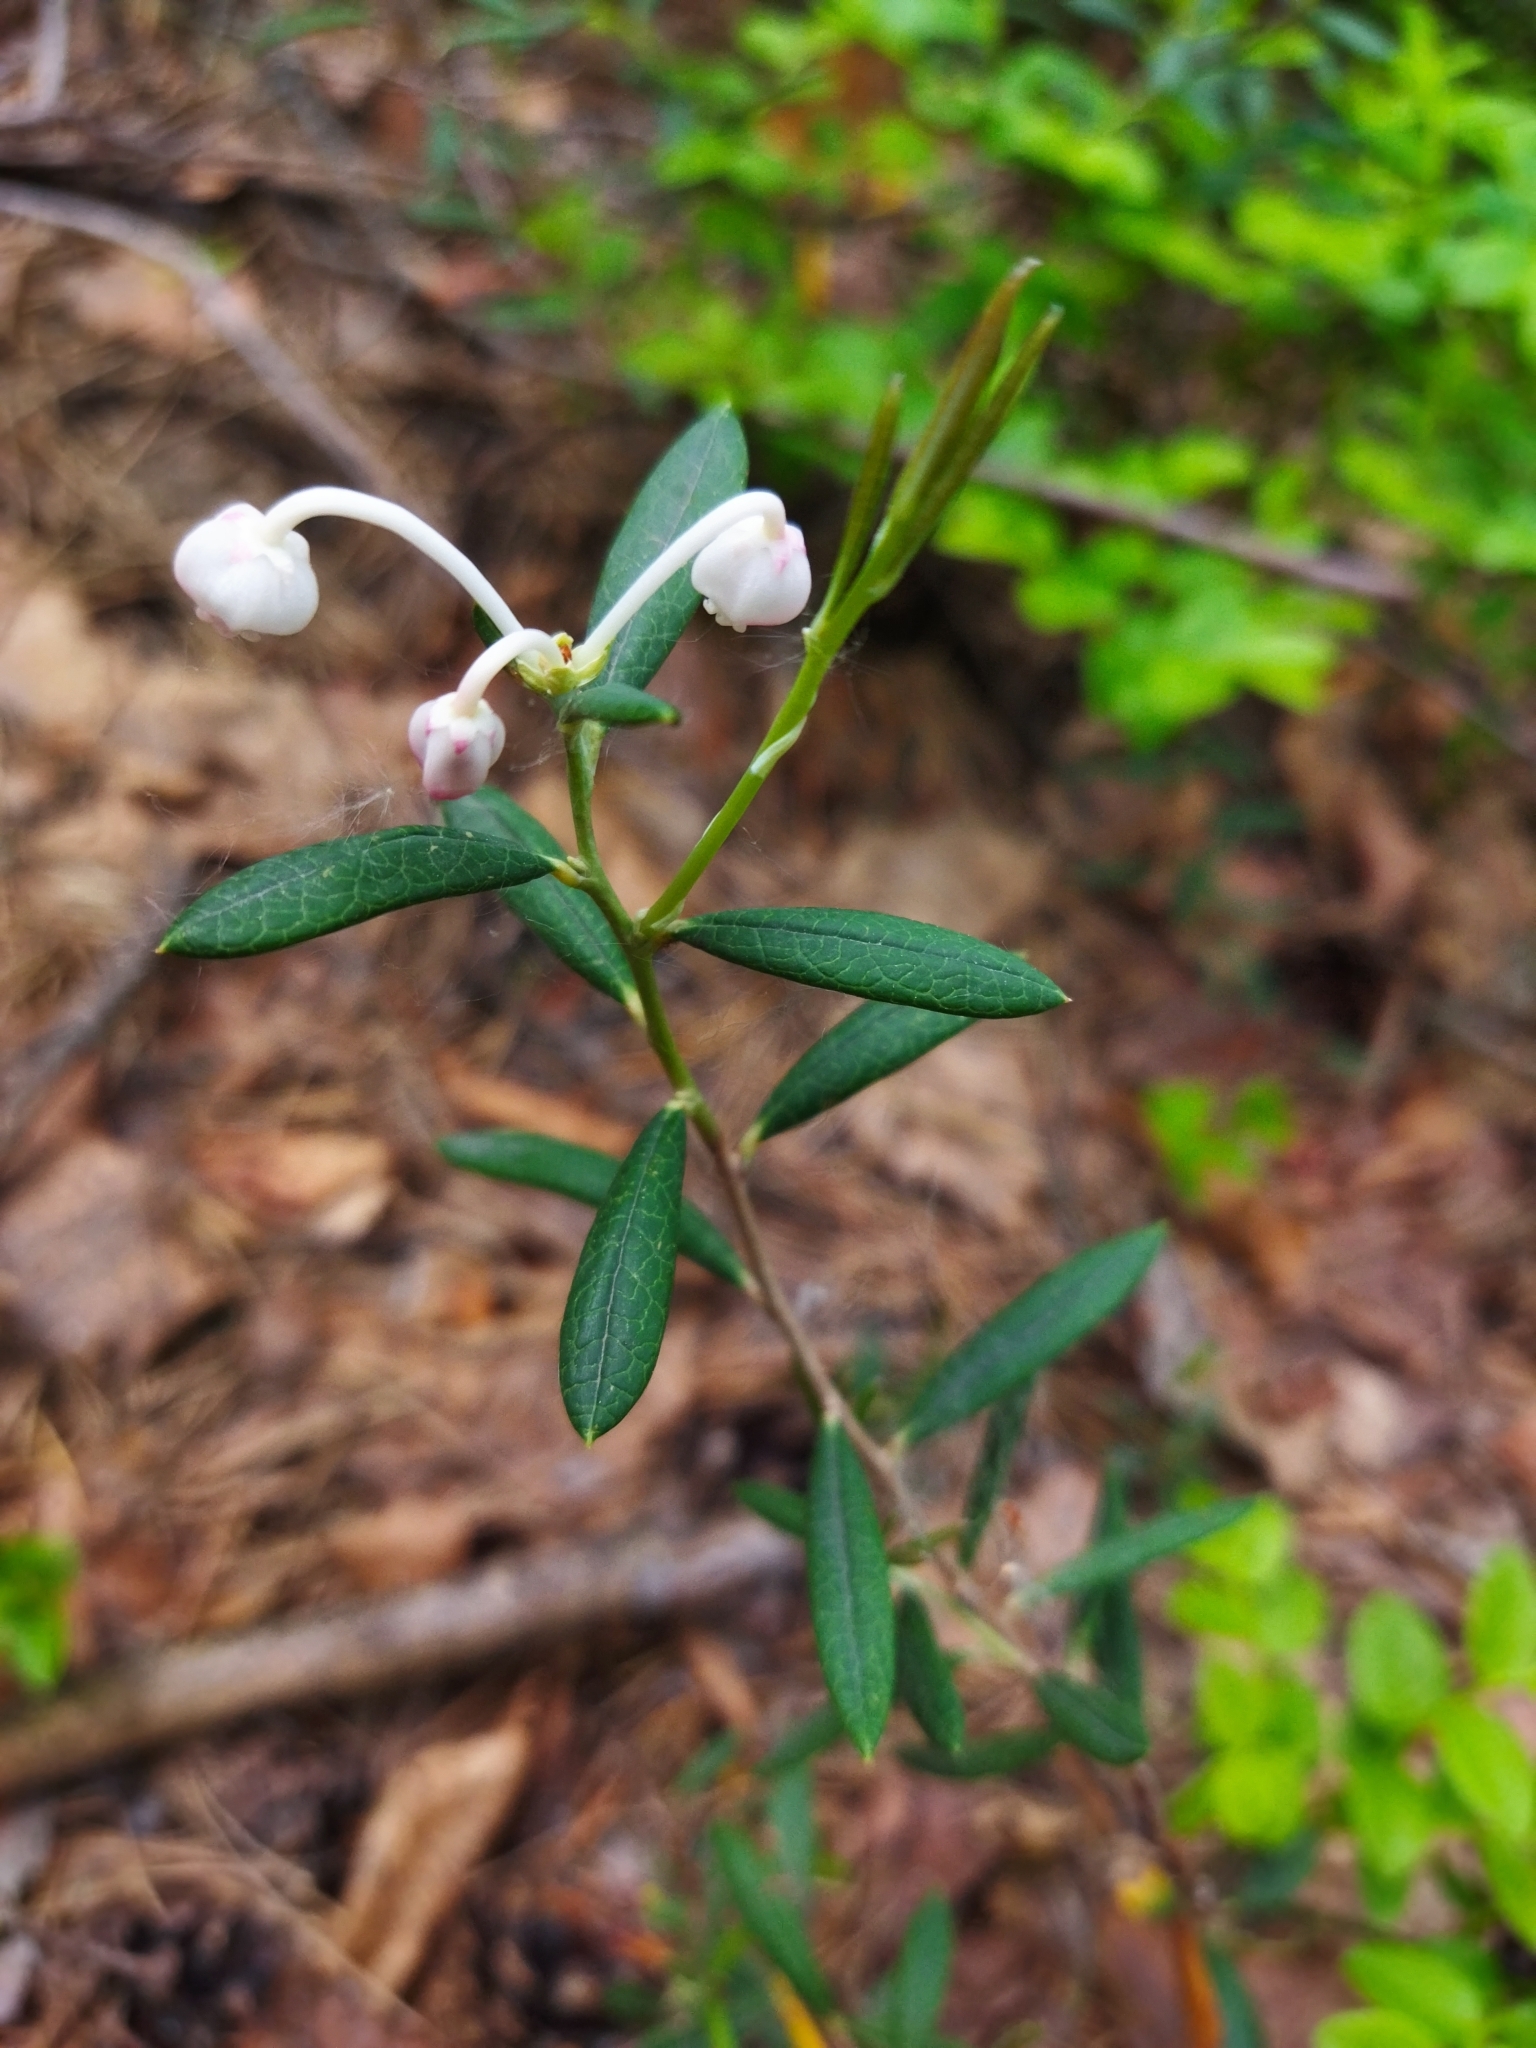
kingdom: Plantae
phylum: Tracheophyta
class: Magnoliopsida
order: Ericales
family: Ericaceae
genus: Andromeda
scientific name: Andromeda polifolia
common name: Bog-rosemary
